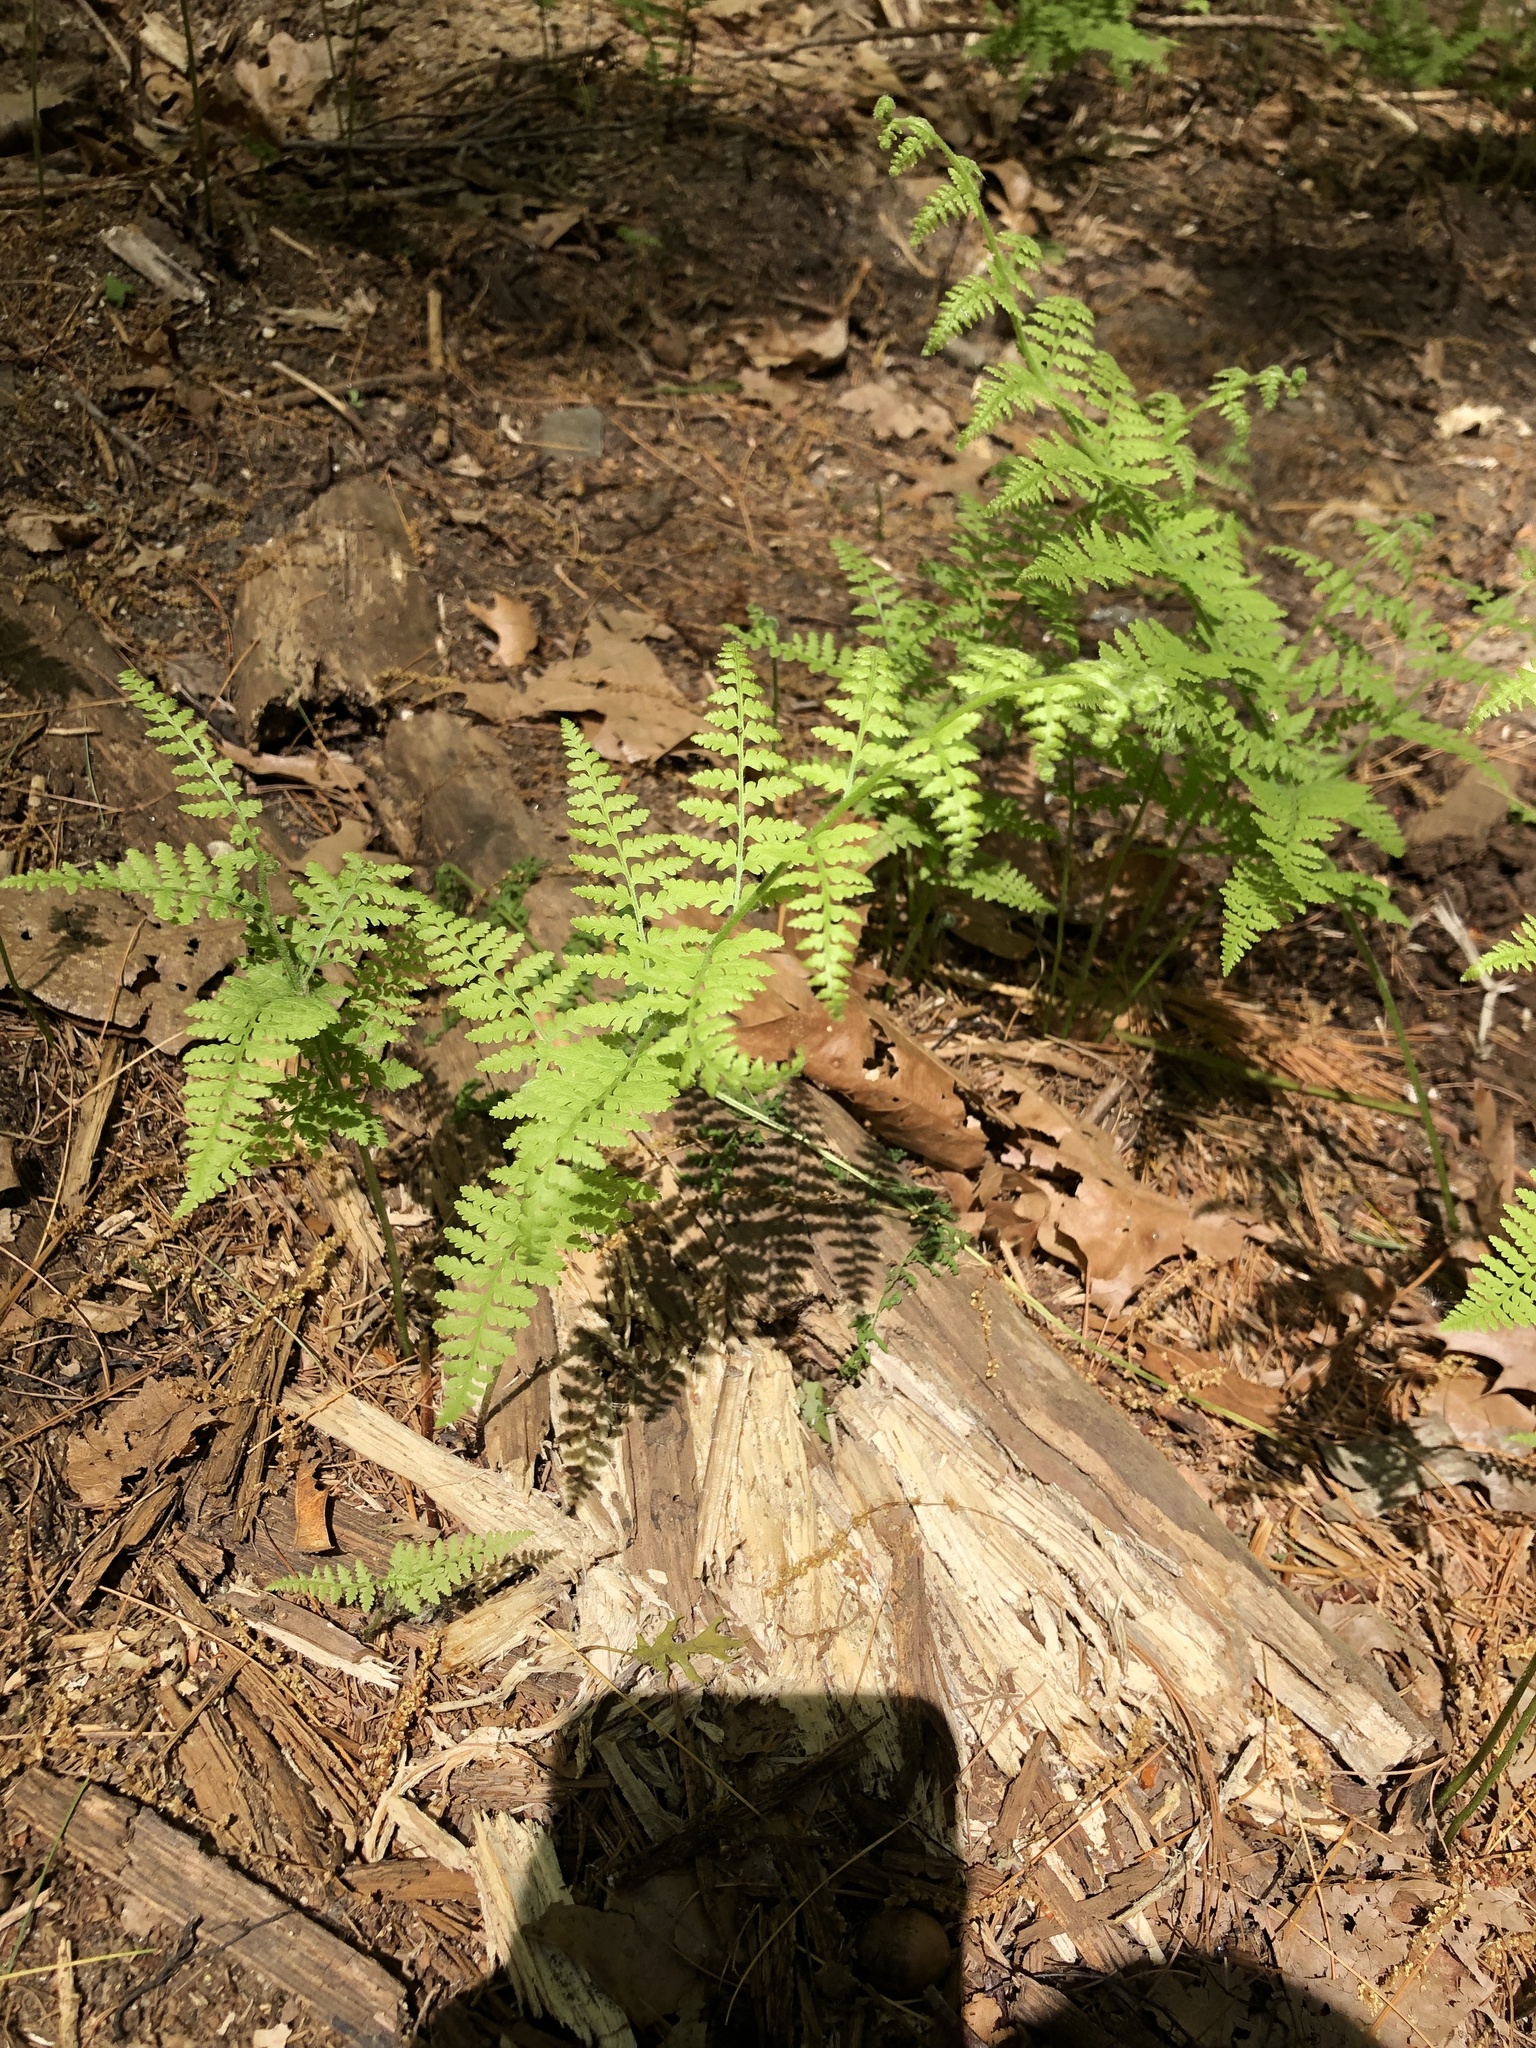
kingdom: Plantae
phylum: Tracheophyta
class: Polypodiopsida
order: Polypodiales
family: Dennstaedtiaceae
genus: Sitobolium
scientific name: Sitobolium punctilobum
